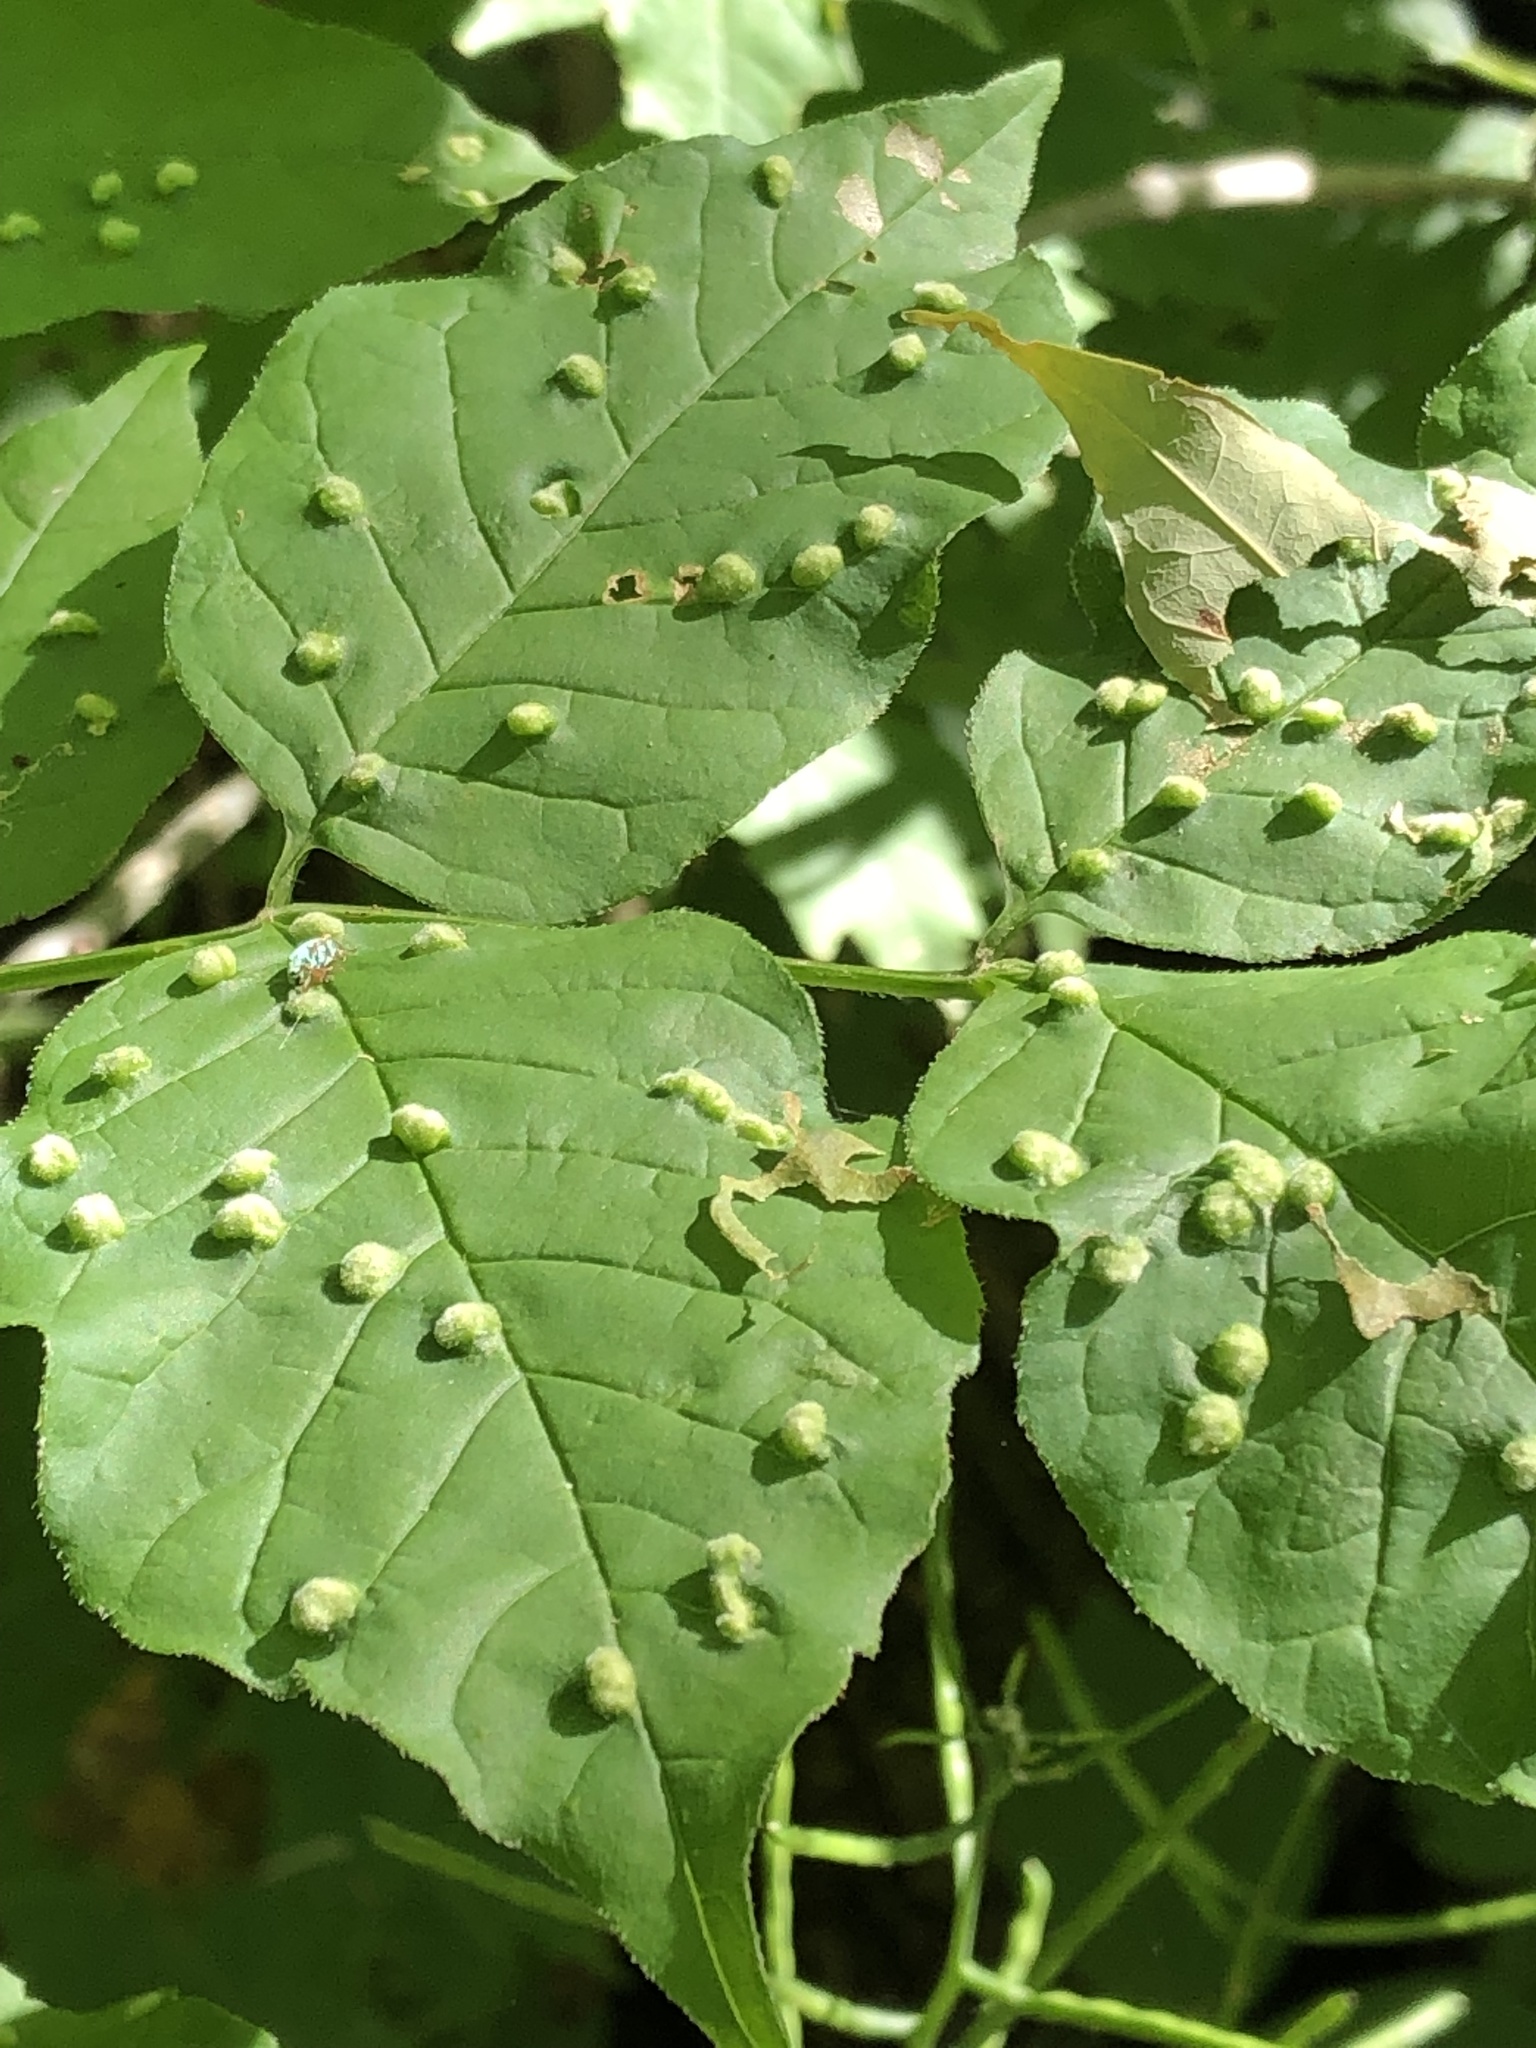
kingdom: Animalia
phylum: Arthropoda
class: Arachnida
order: Trombidiformes
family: Eriophyidae
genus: Aceria
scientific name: Aceria fraxinicola
